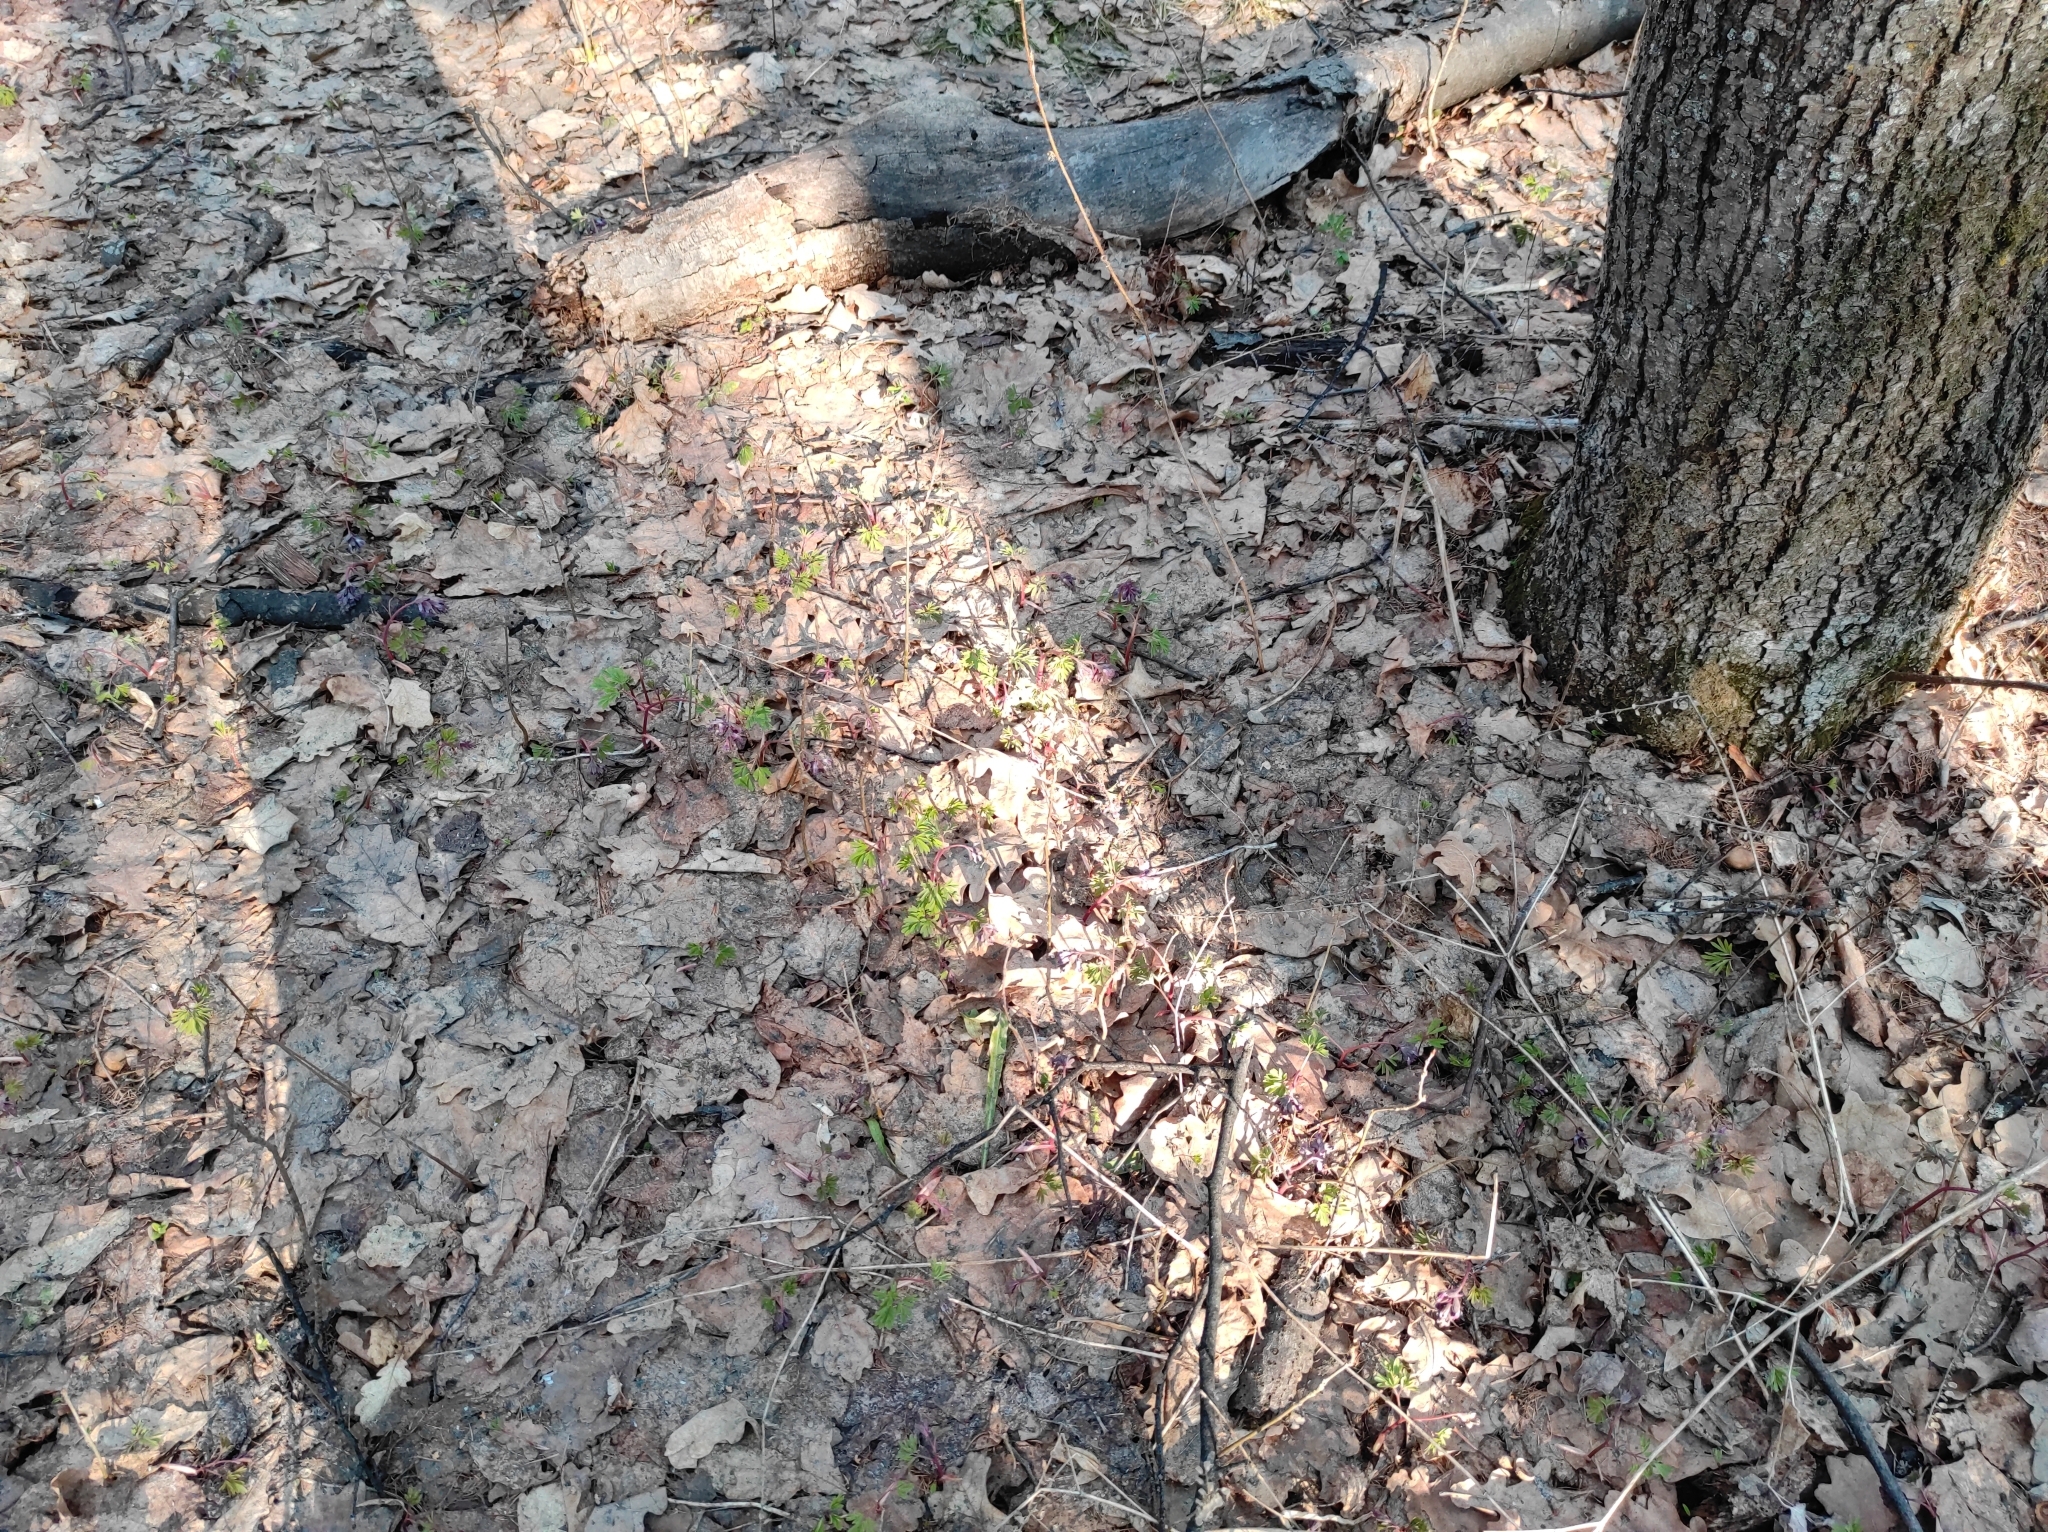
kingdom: Plantae
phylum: Tracheophyta
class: Magnoliopsida
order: Ranunculales
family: Papaveraceae
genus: Corydalis
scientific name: Corydalis solida
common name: Bird-in-a-bush
